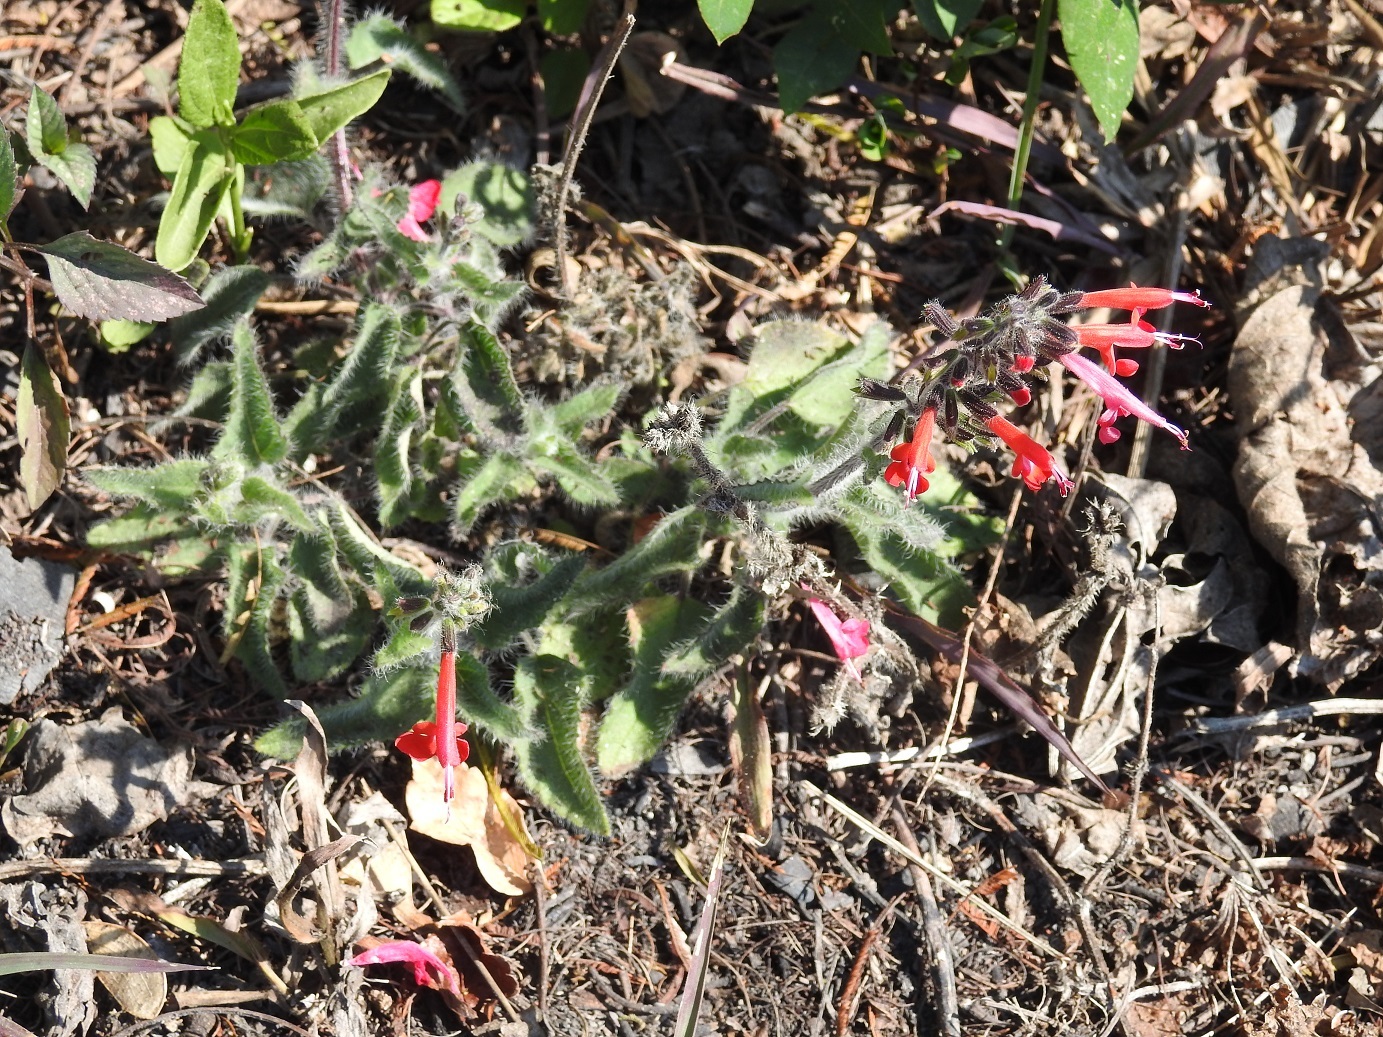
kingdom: Plantae
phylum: Tracheophyta
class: Magnoliopsida
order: Lamiales
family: Lamiaceae
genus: Salvia
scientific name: Salvia coccinea
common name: Blood sage
